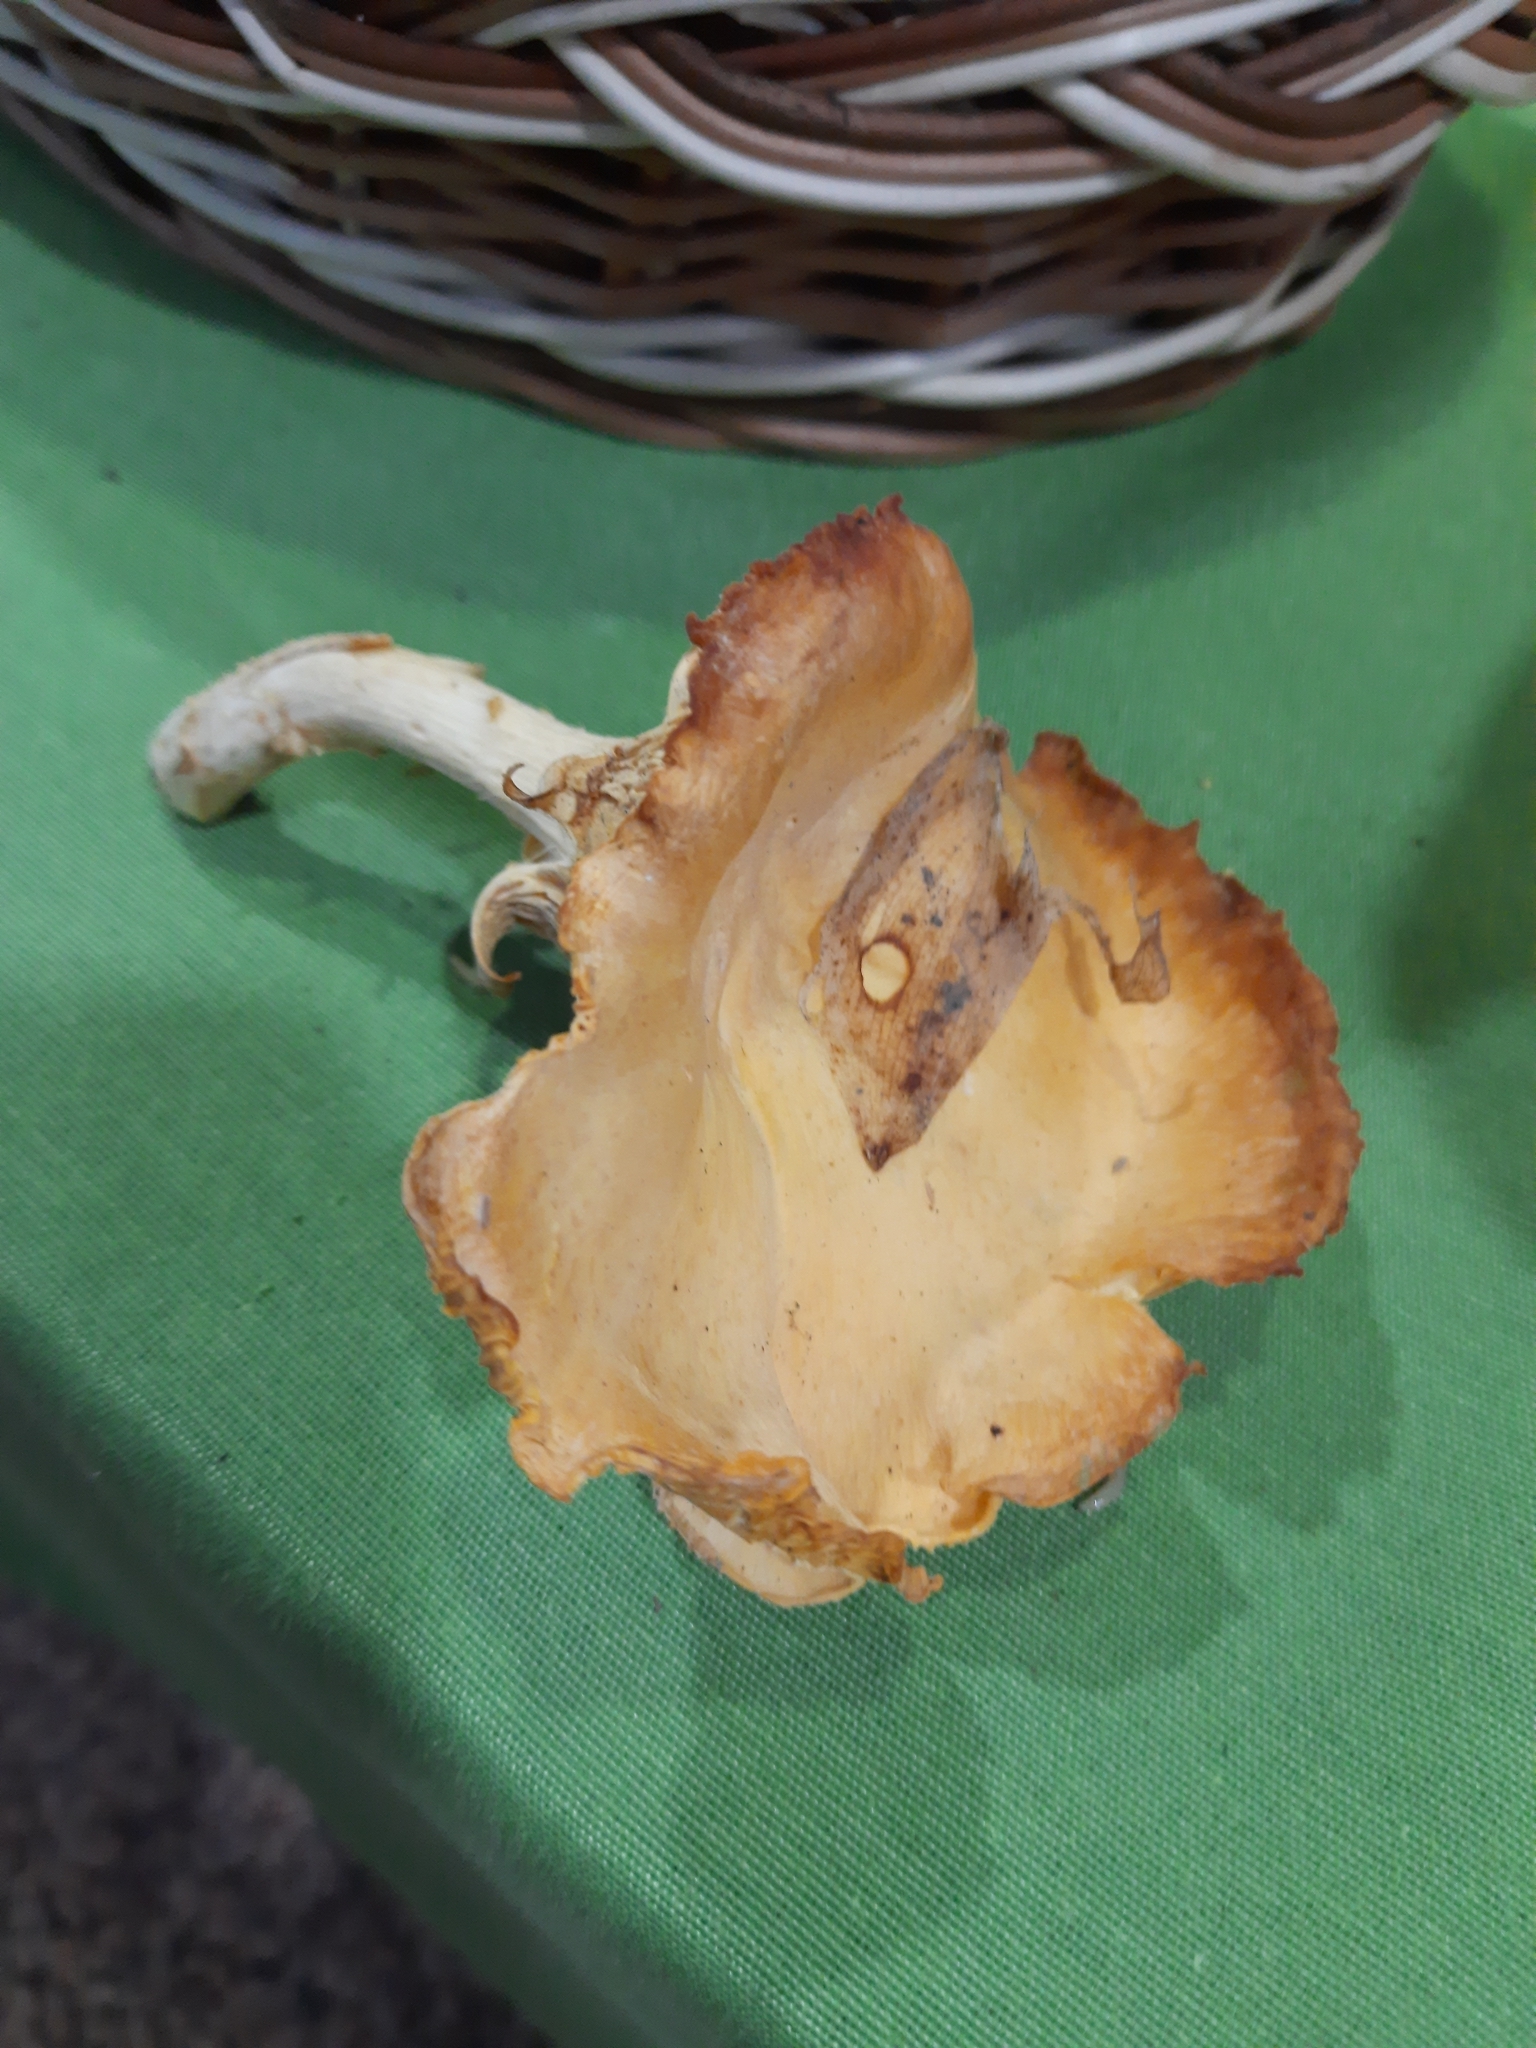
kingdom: Fungi
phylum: Basidiomycota
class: Agaricomycetes
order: Cantharellales
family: Hydnaceae
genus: Cantharellus
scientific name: Cantharellus cibarius
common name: Chanterelle
